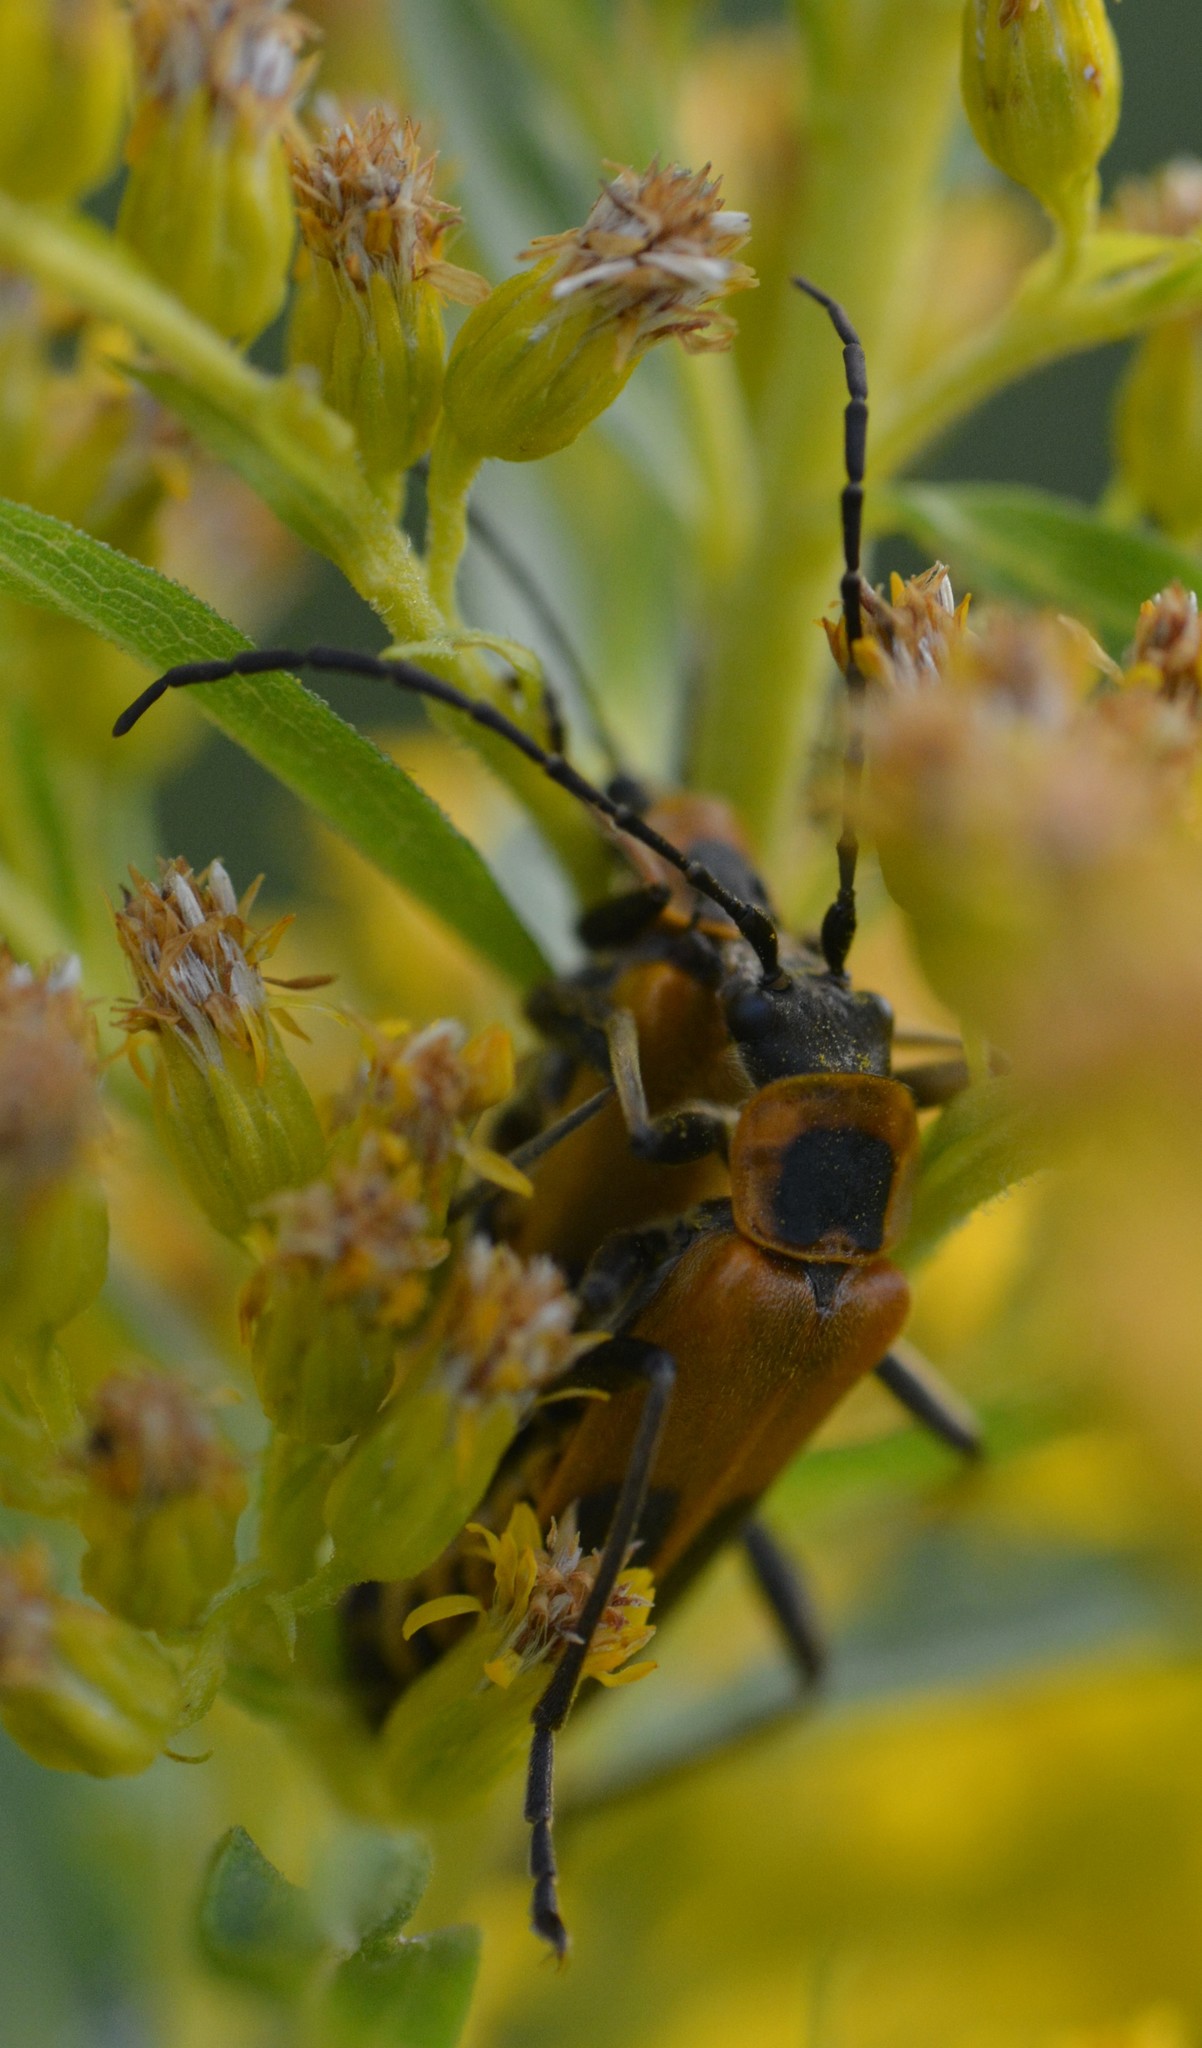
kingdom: Animalia
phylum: Arthropoda
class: Insecta
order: Coleoptera
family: Cantharidae
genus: Chauliognathus
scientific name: Chauliognathus pensylvanicus
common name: Goldenrod soldier beetle
